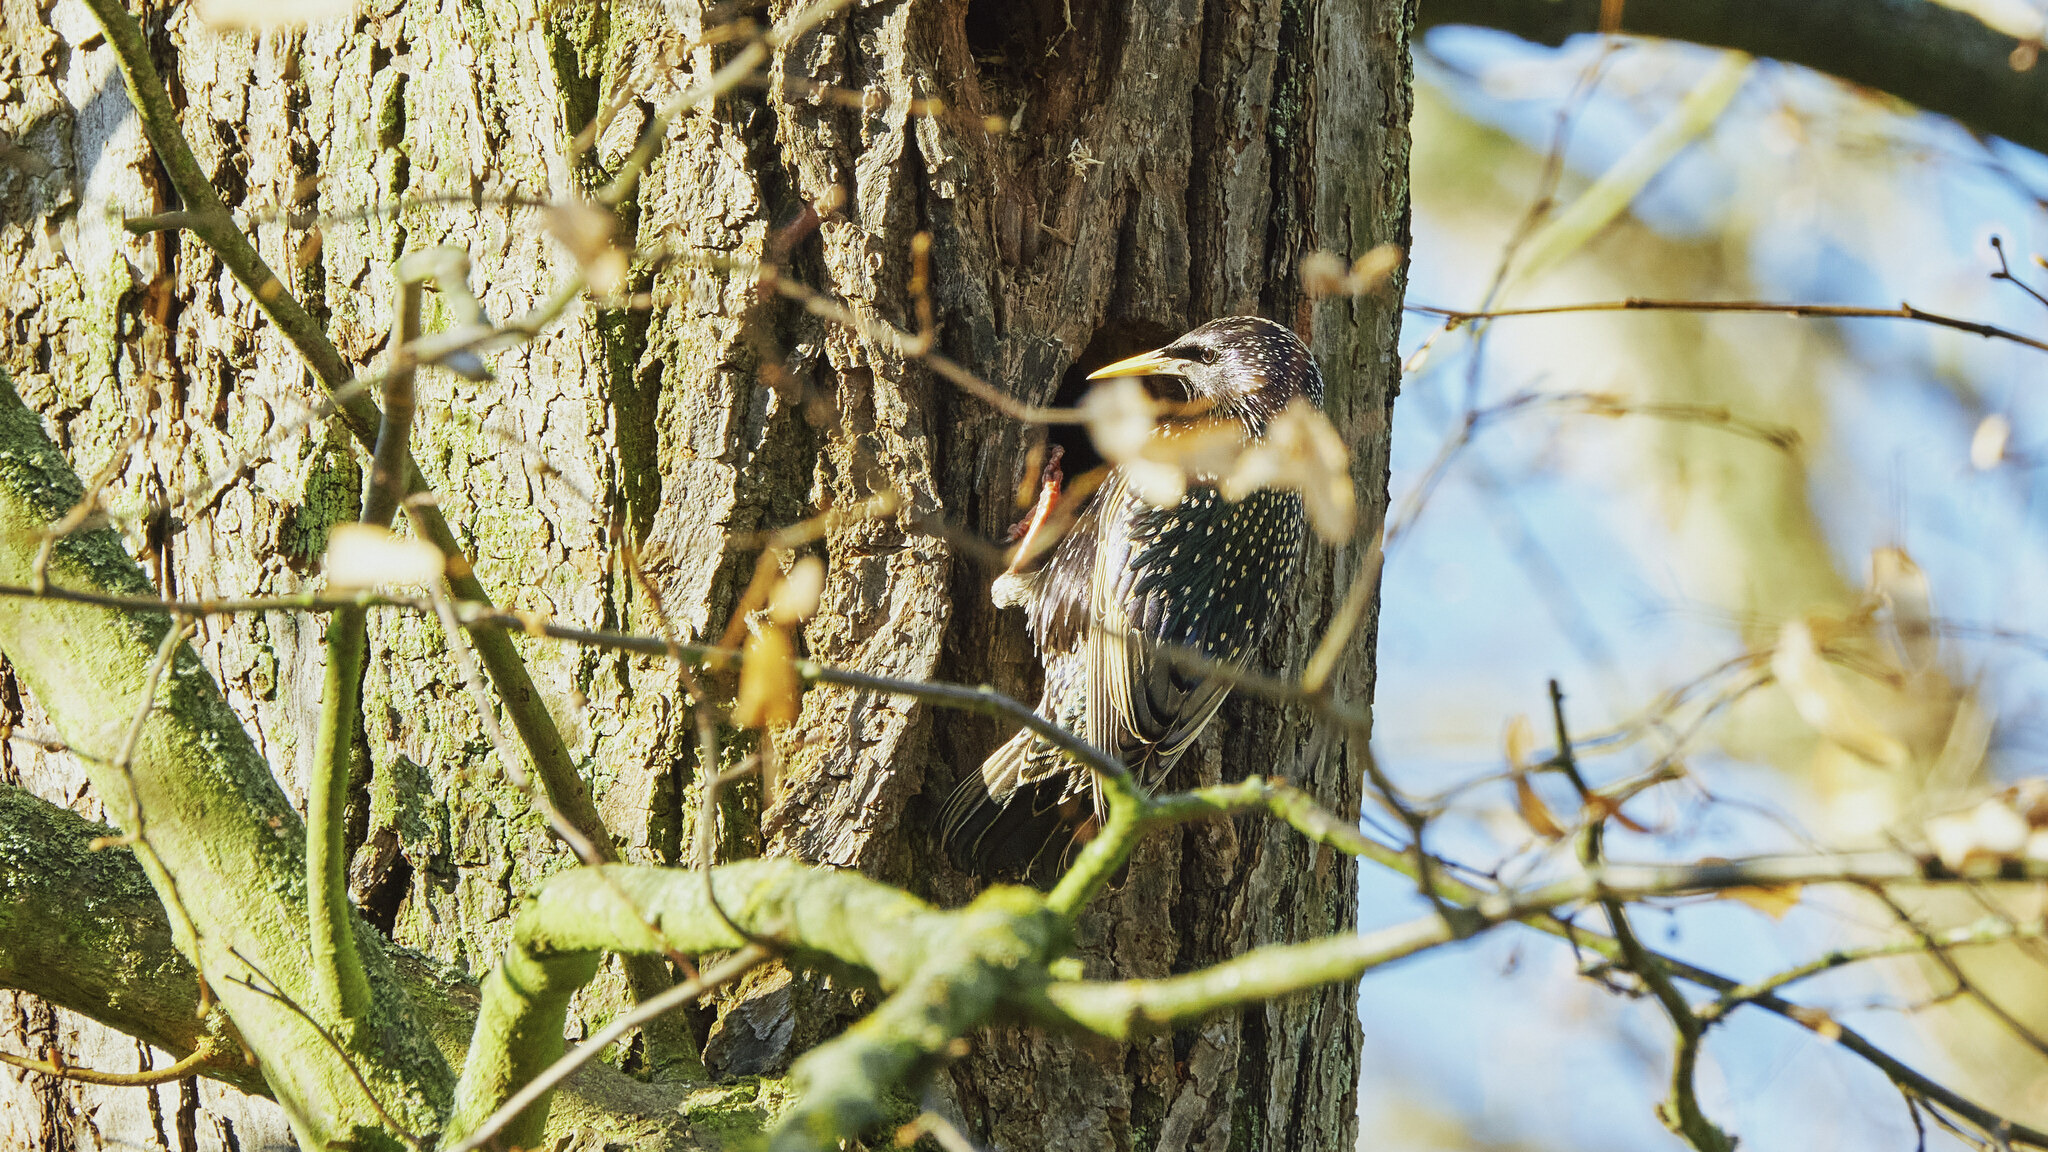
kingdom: Animalia
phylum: Chordata
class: Aves
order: Passeriformes
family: Sturnidae
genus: Sturnus
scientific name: Sturnus vulgaris
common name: Common starling
